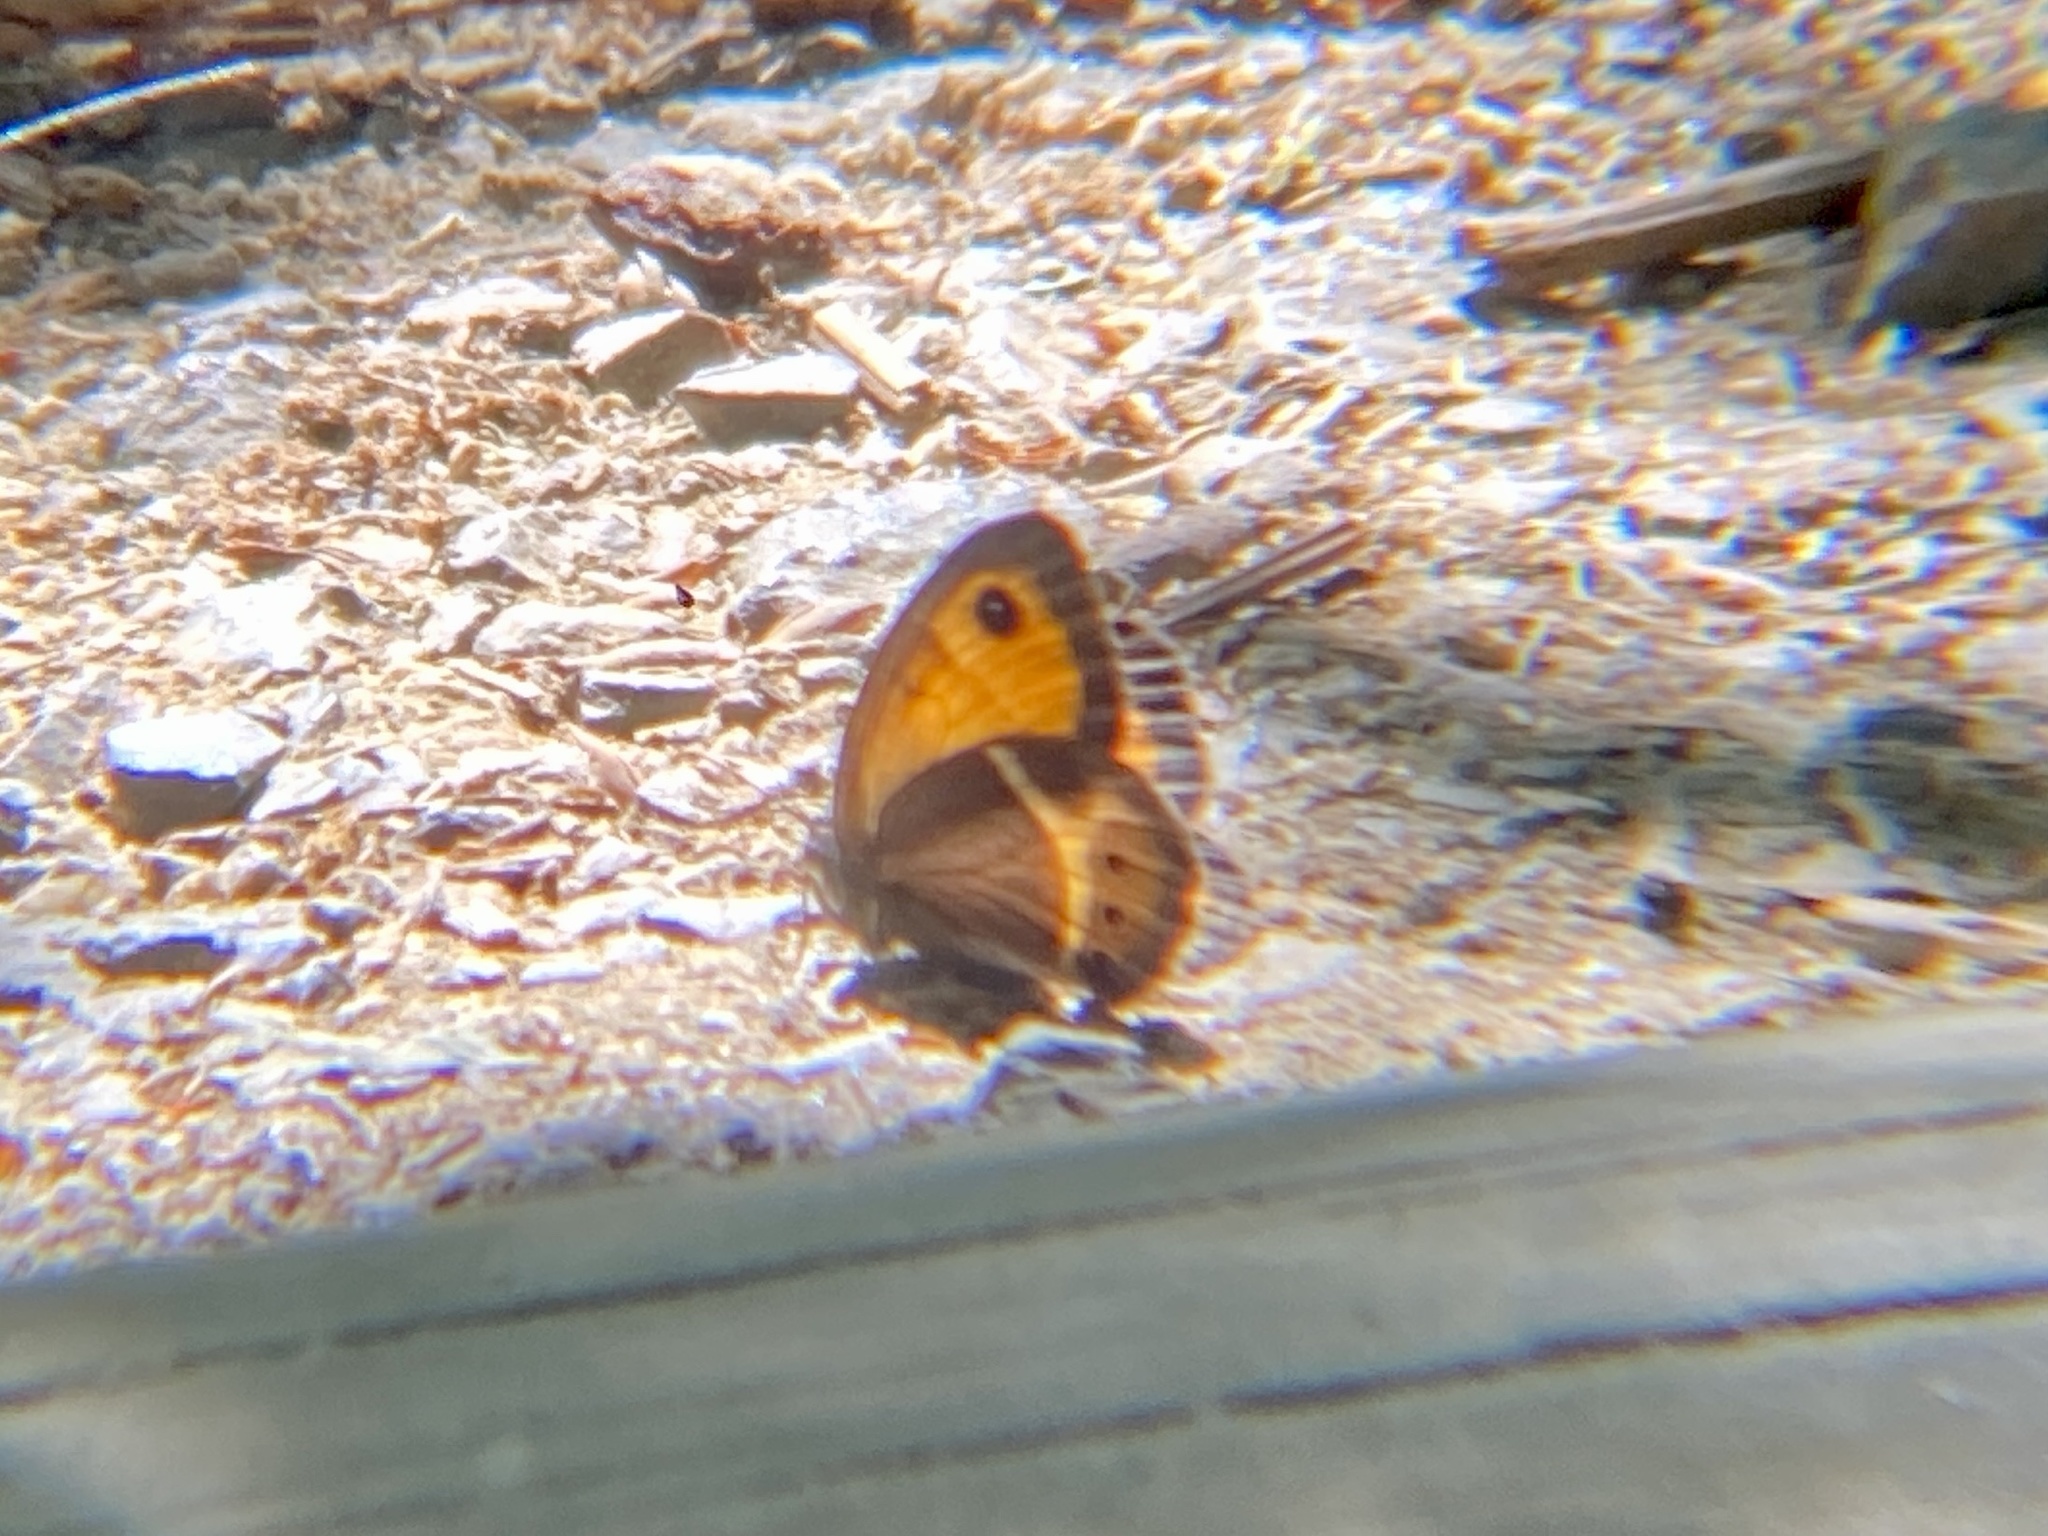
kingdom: Animalia
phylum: Arthropoda
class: Insecta
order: Lepidoptera
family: Nymphalidae
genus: Pyronia
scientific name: Pyronia bathseba
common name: Spanish gatekeeper
